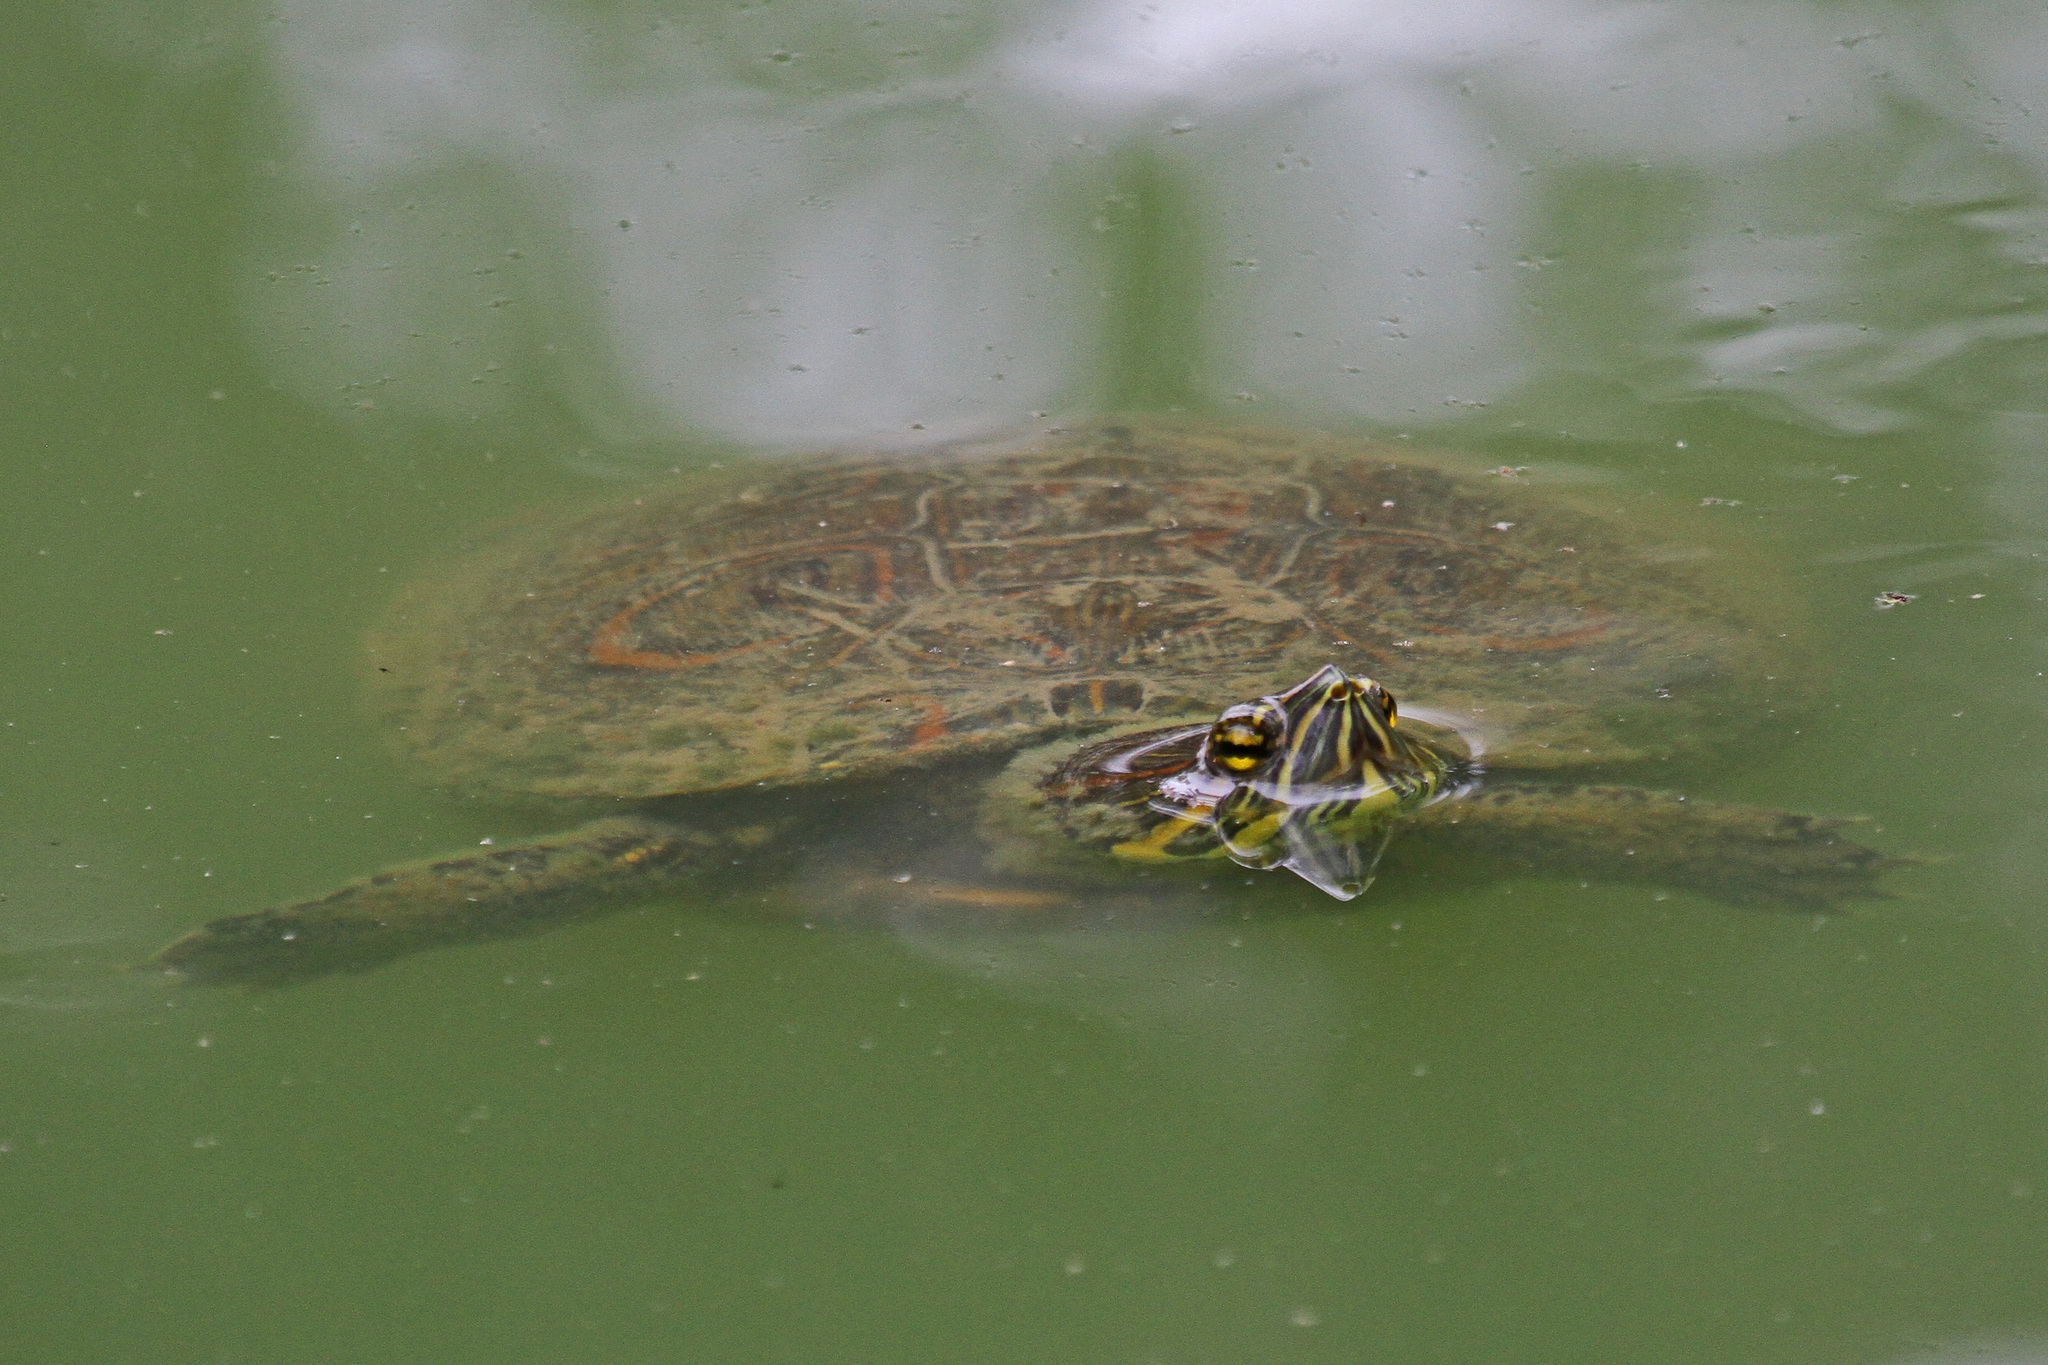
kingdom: Animalia
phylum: Chordata
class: Testudines
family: Emydidae
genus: Trachemys
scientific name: Trachemys venusta
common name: Mesoamerican slider
